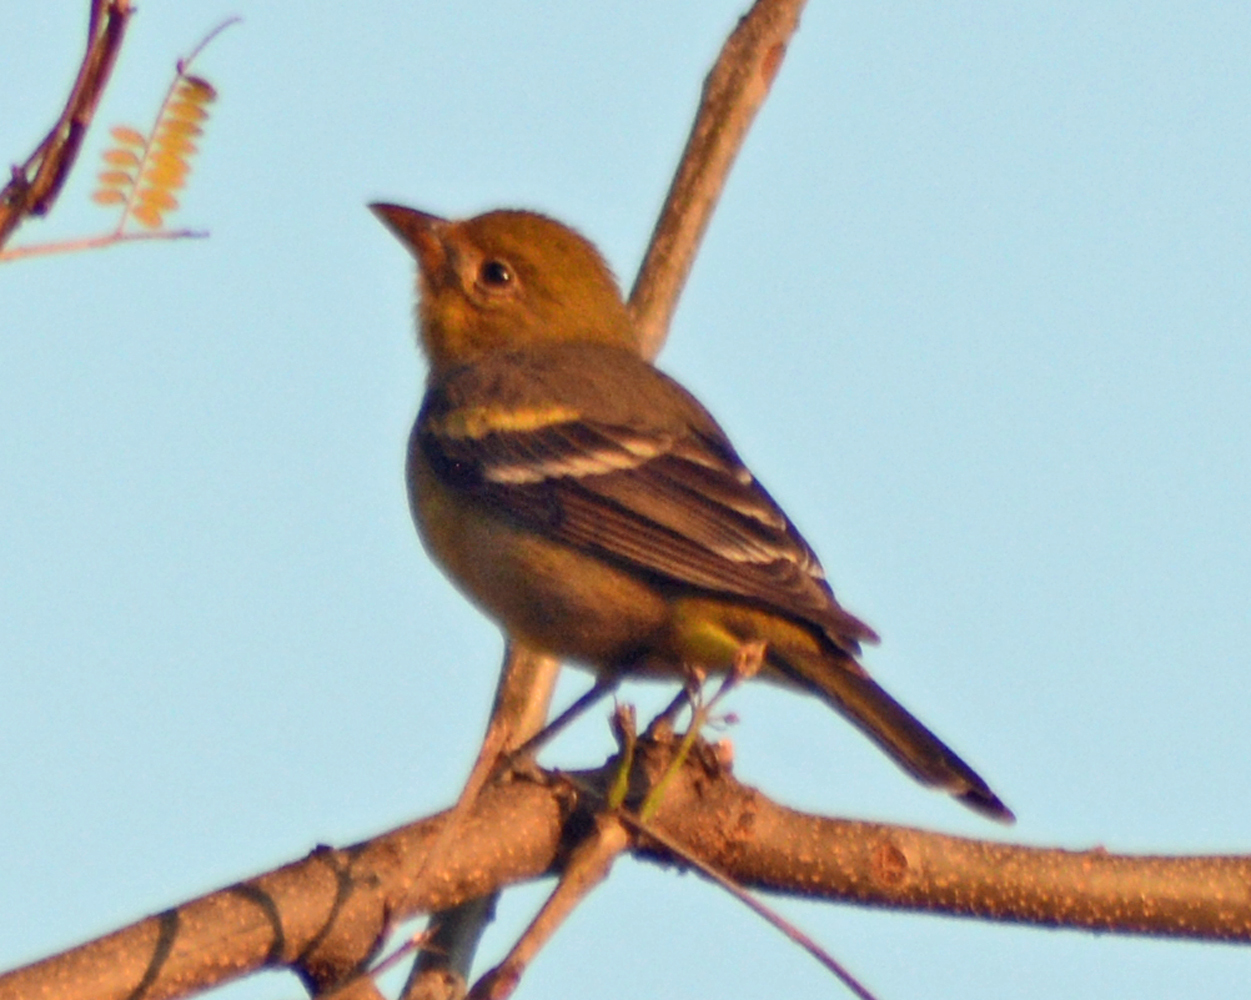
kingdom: Animalia
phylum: Chordata
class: Aves
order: Passeriformes
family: Cardinalidae
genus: Piranga
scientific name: Piranga ludoviciana
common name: Western tanager
